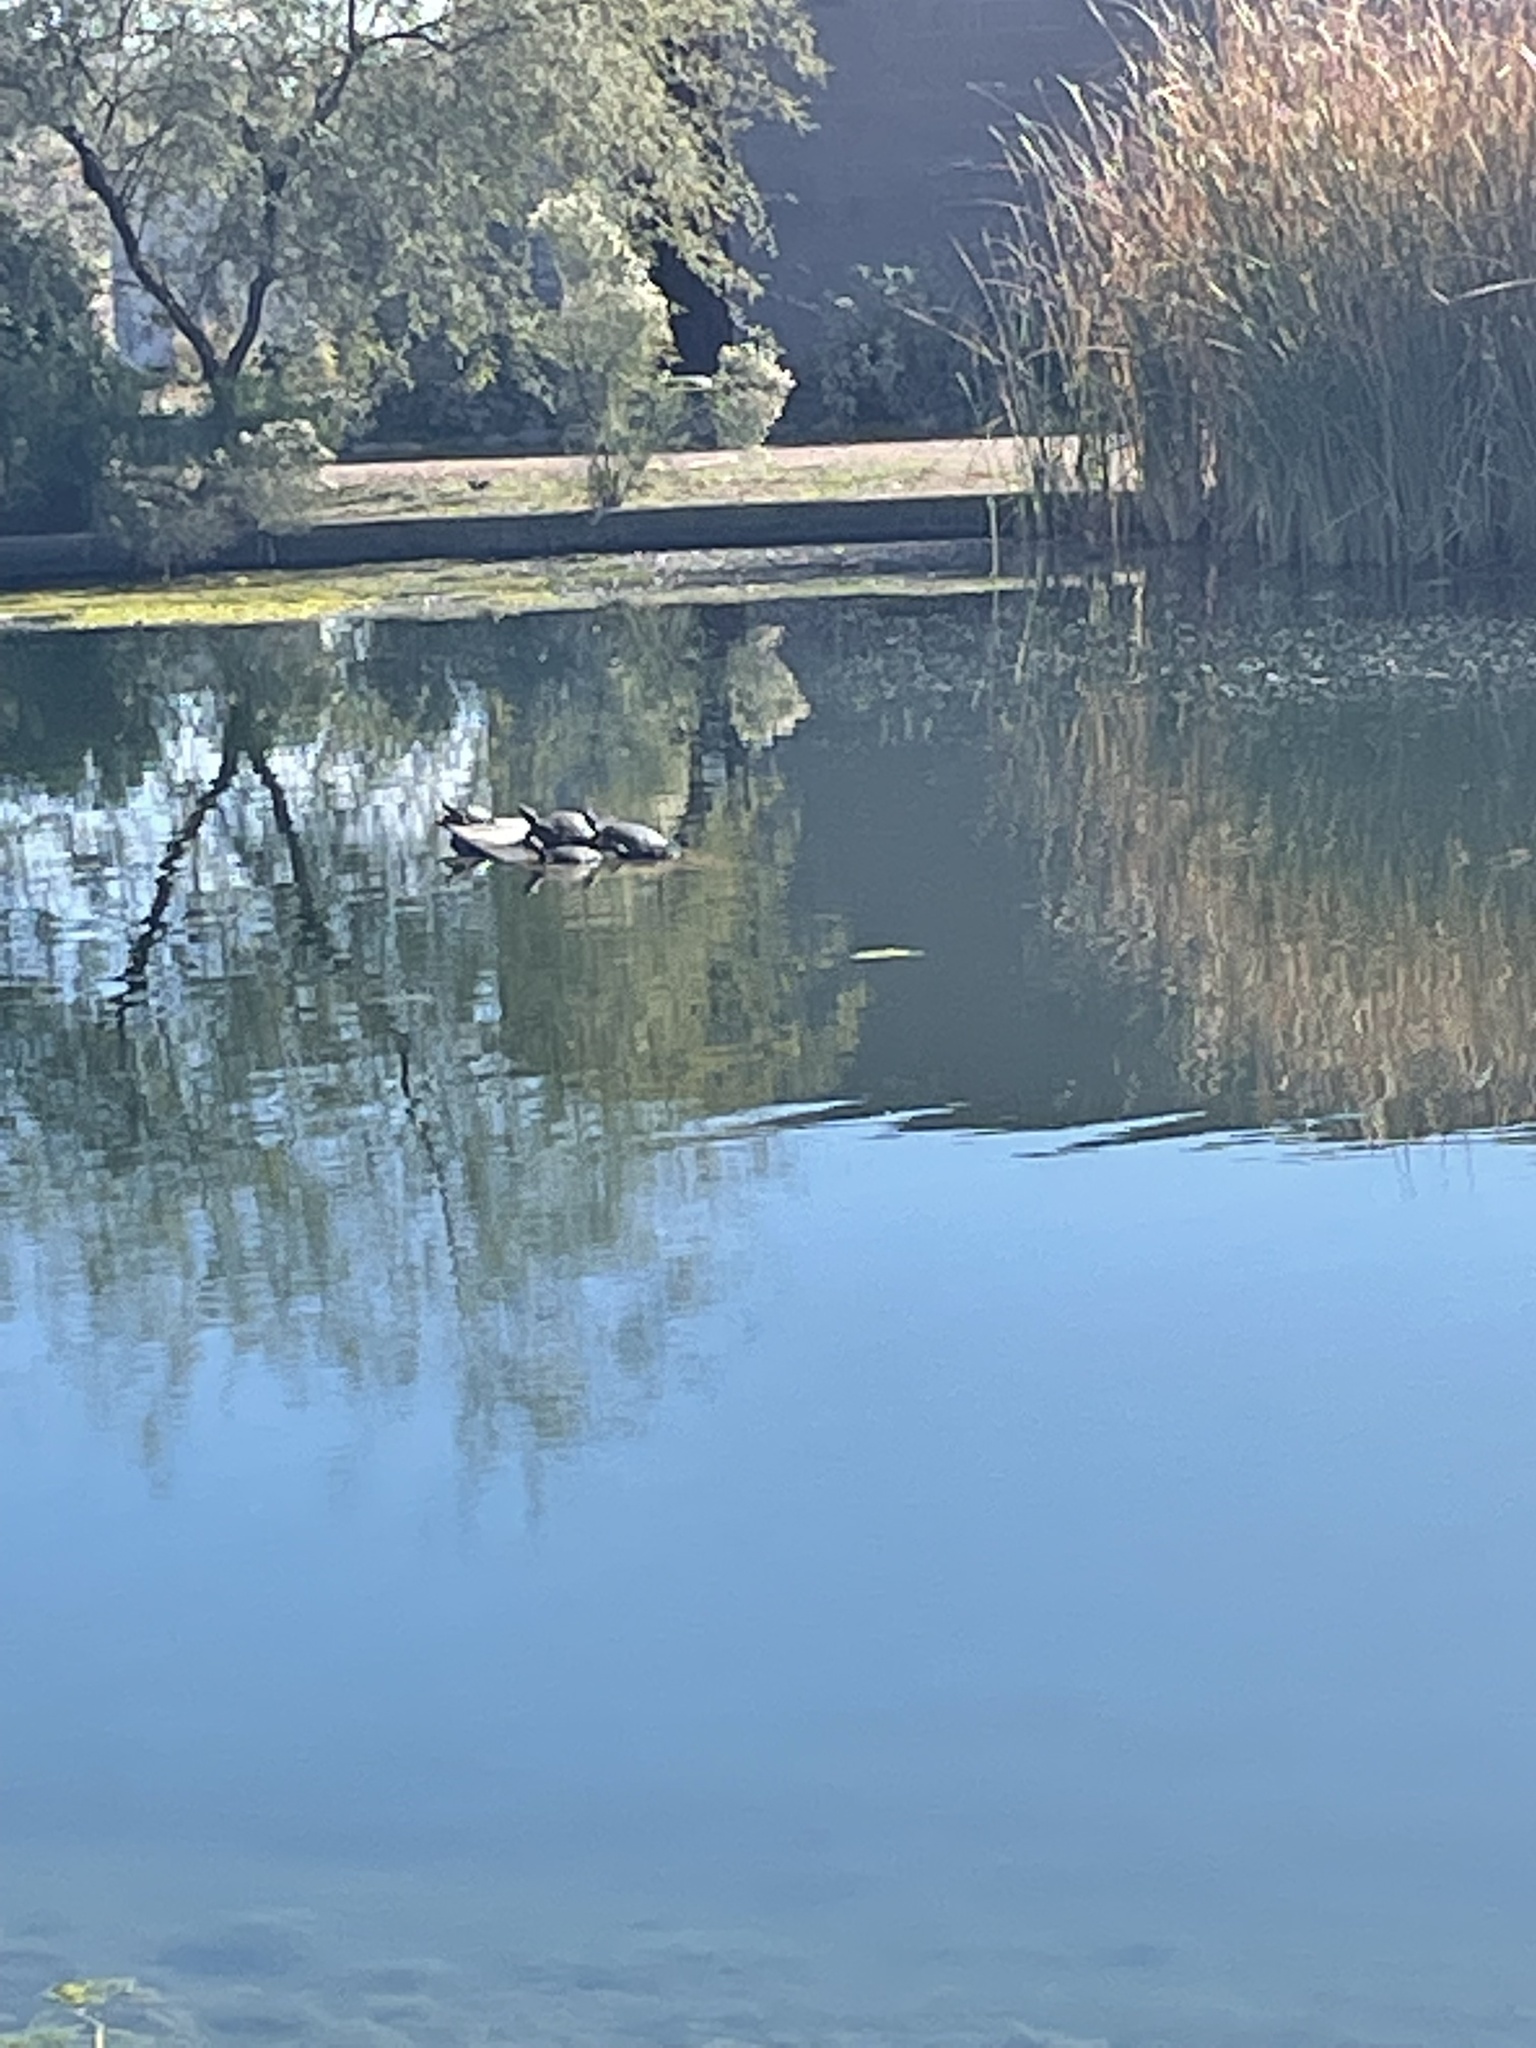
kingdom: Animalia
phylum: Chordata
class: Testudines
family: Emydidae
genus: Trachemys
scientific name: Trachemys scripta
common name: Slider
